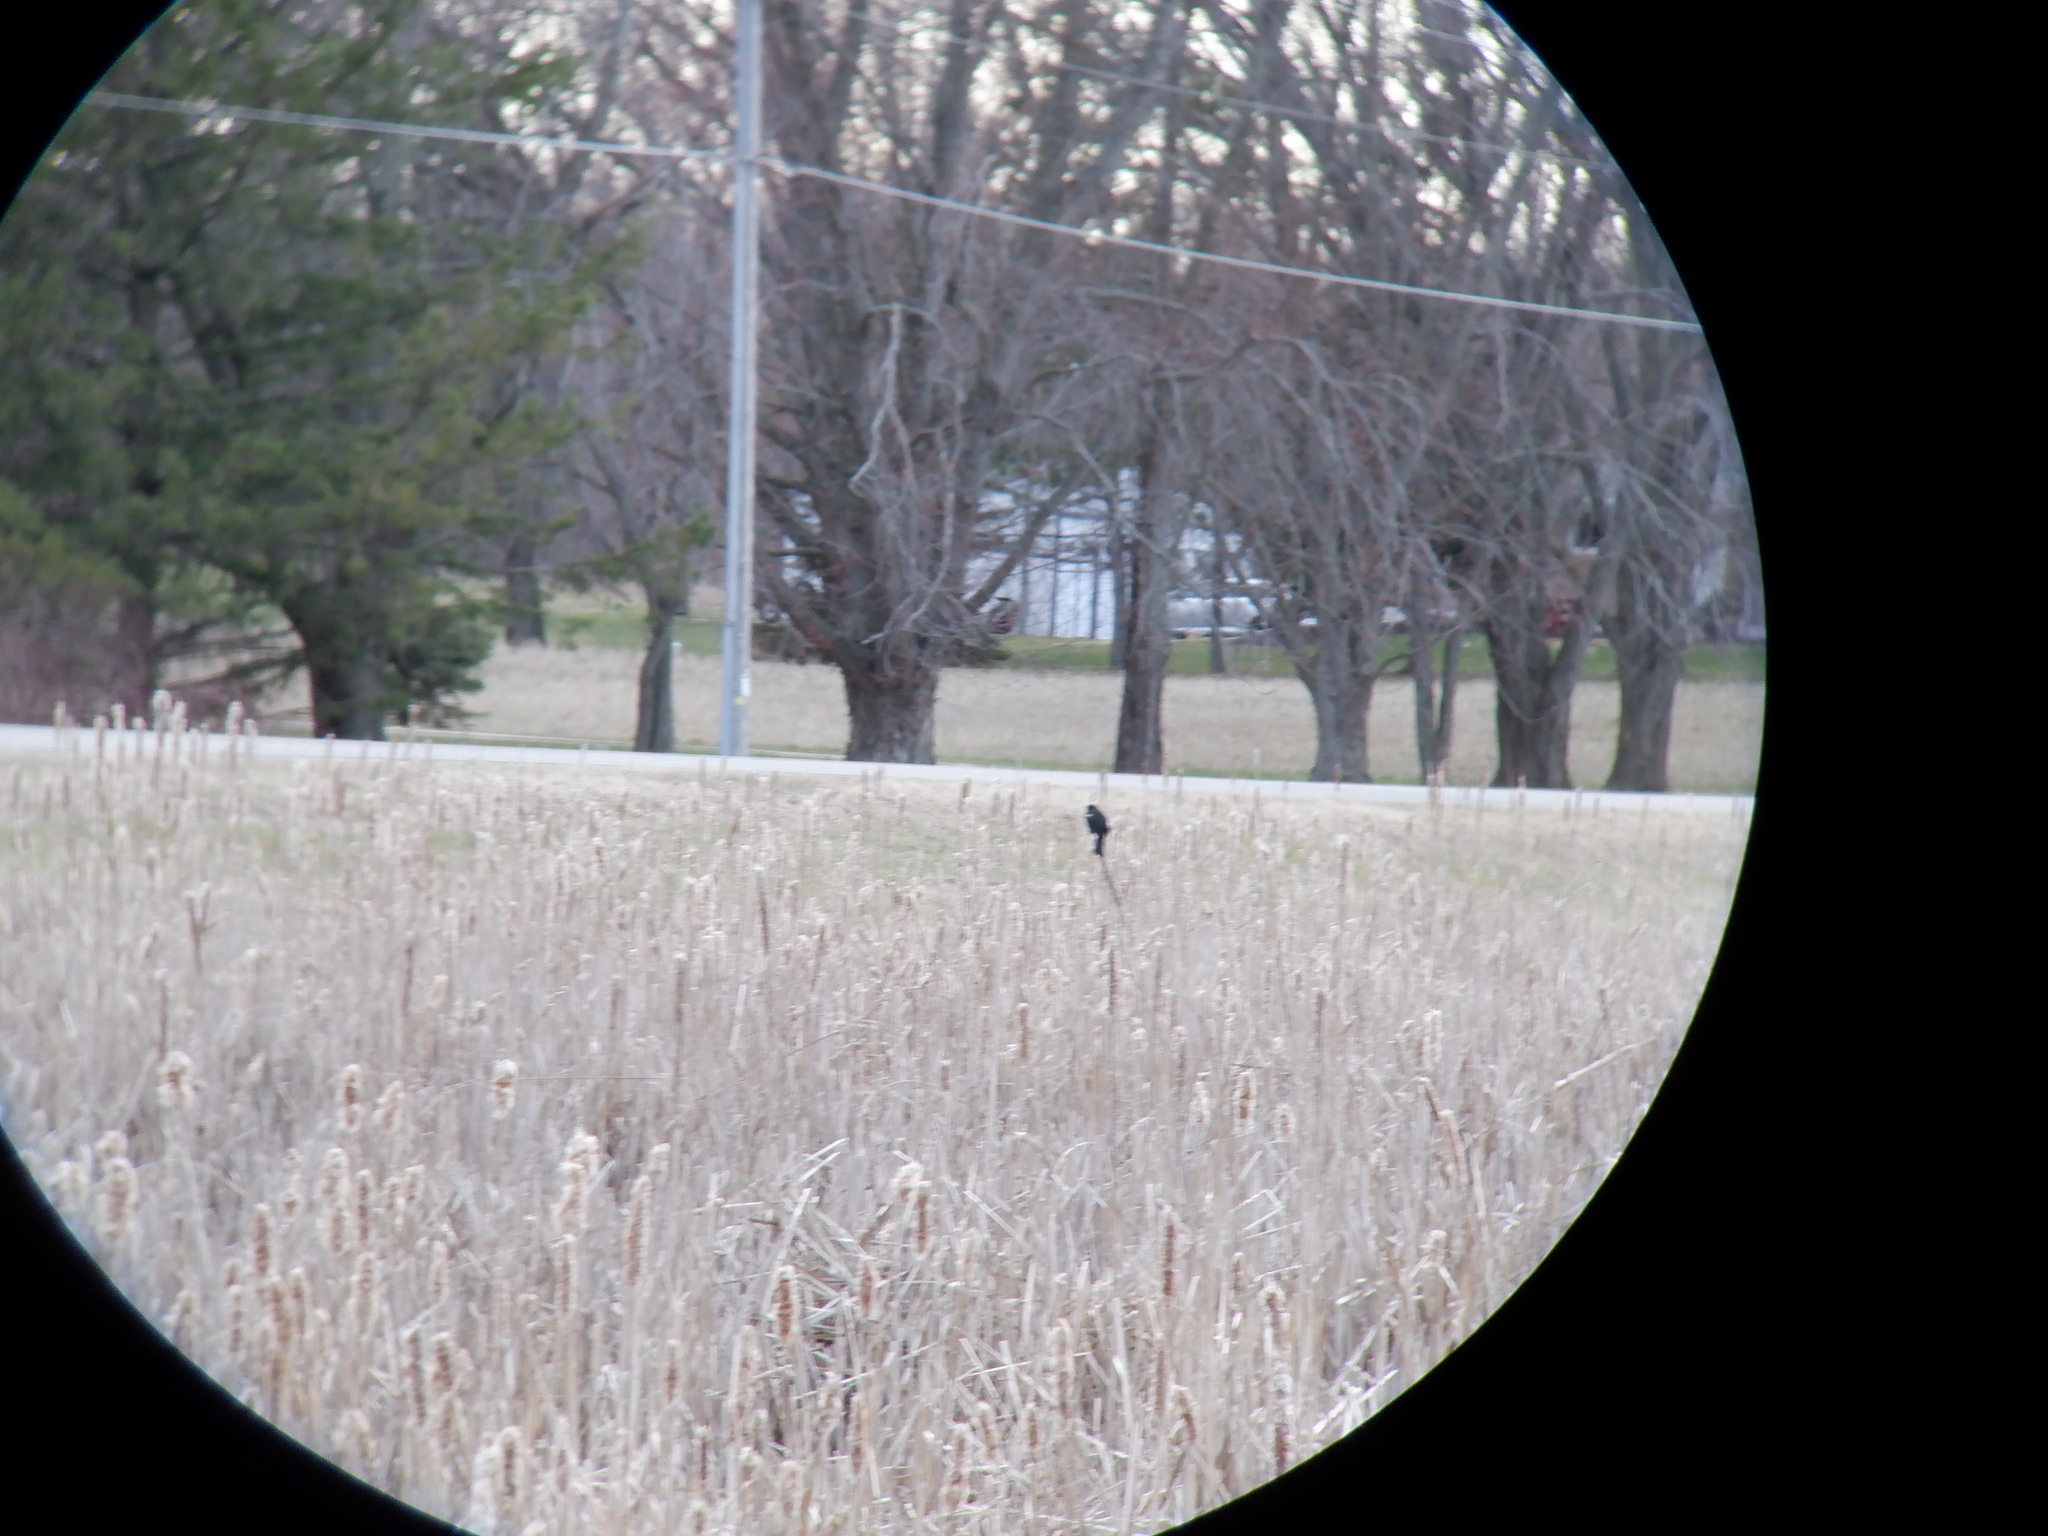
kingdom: Animalia
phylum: Chordata
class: Aves
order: Passeriformes
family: Icteridae
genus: Agelaius
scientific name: Agelaius phoeniceus
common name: Red-winged blackbird
